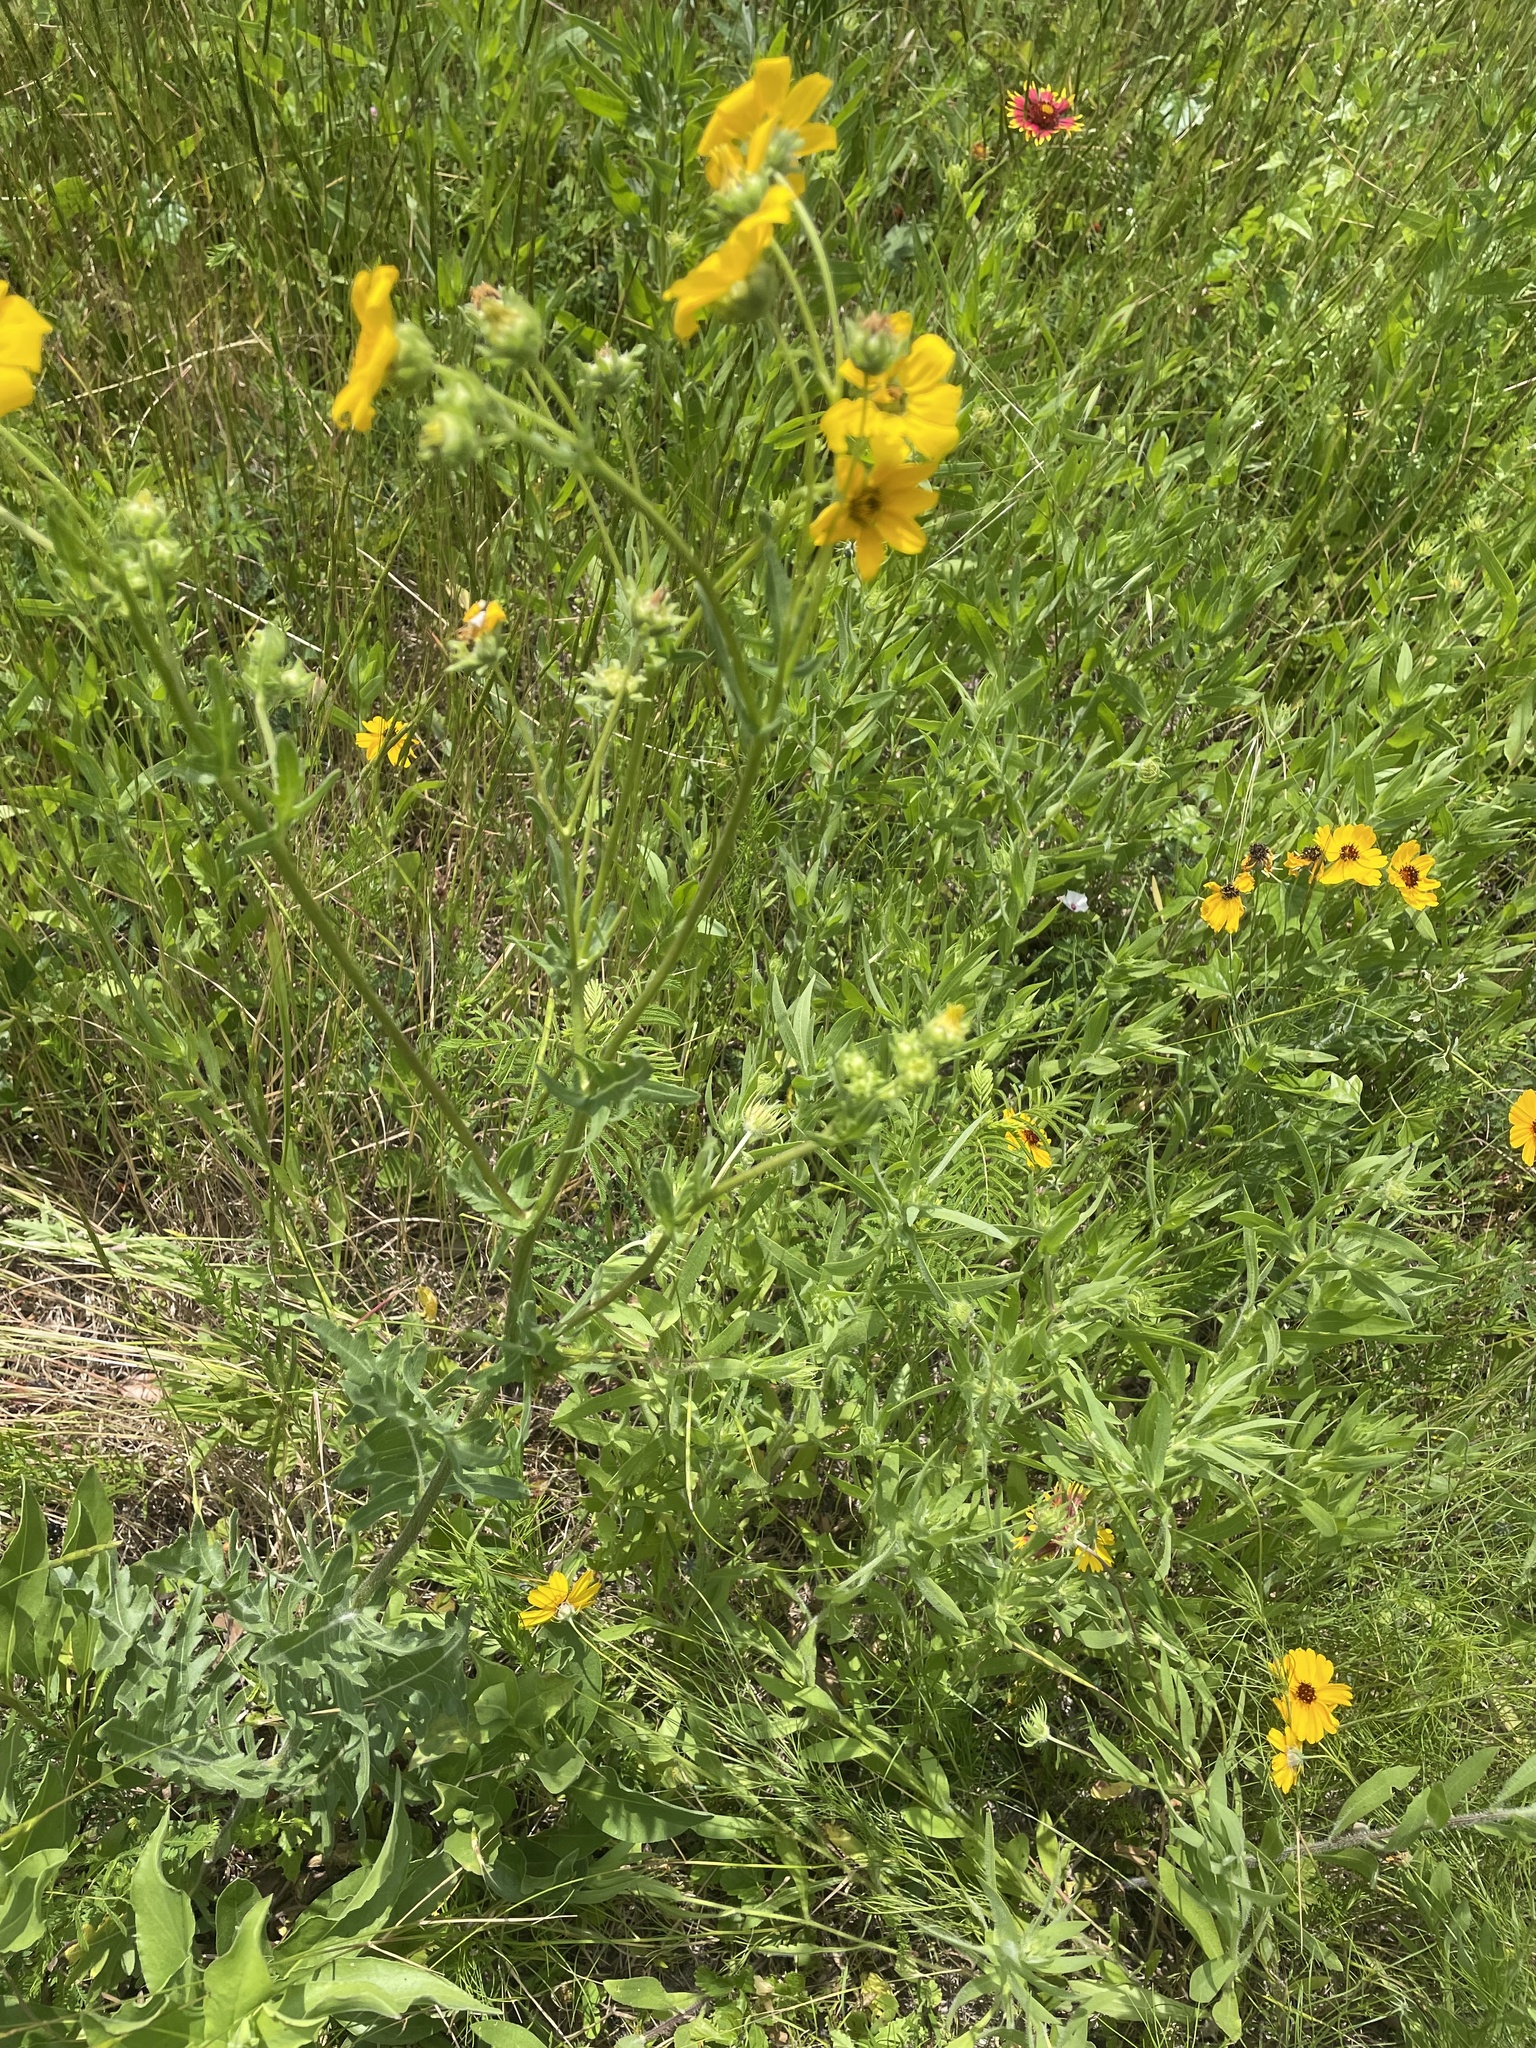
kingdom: Plantae
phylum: Tracheophyta
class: Magnoliopsida
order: Asterales
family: Asteraceae
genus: Engelmannia
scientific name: Engelmannia peristenia
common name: Engelmann's daisy
